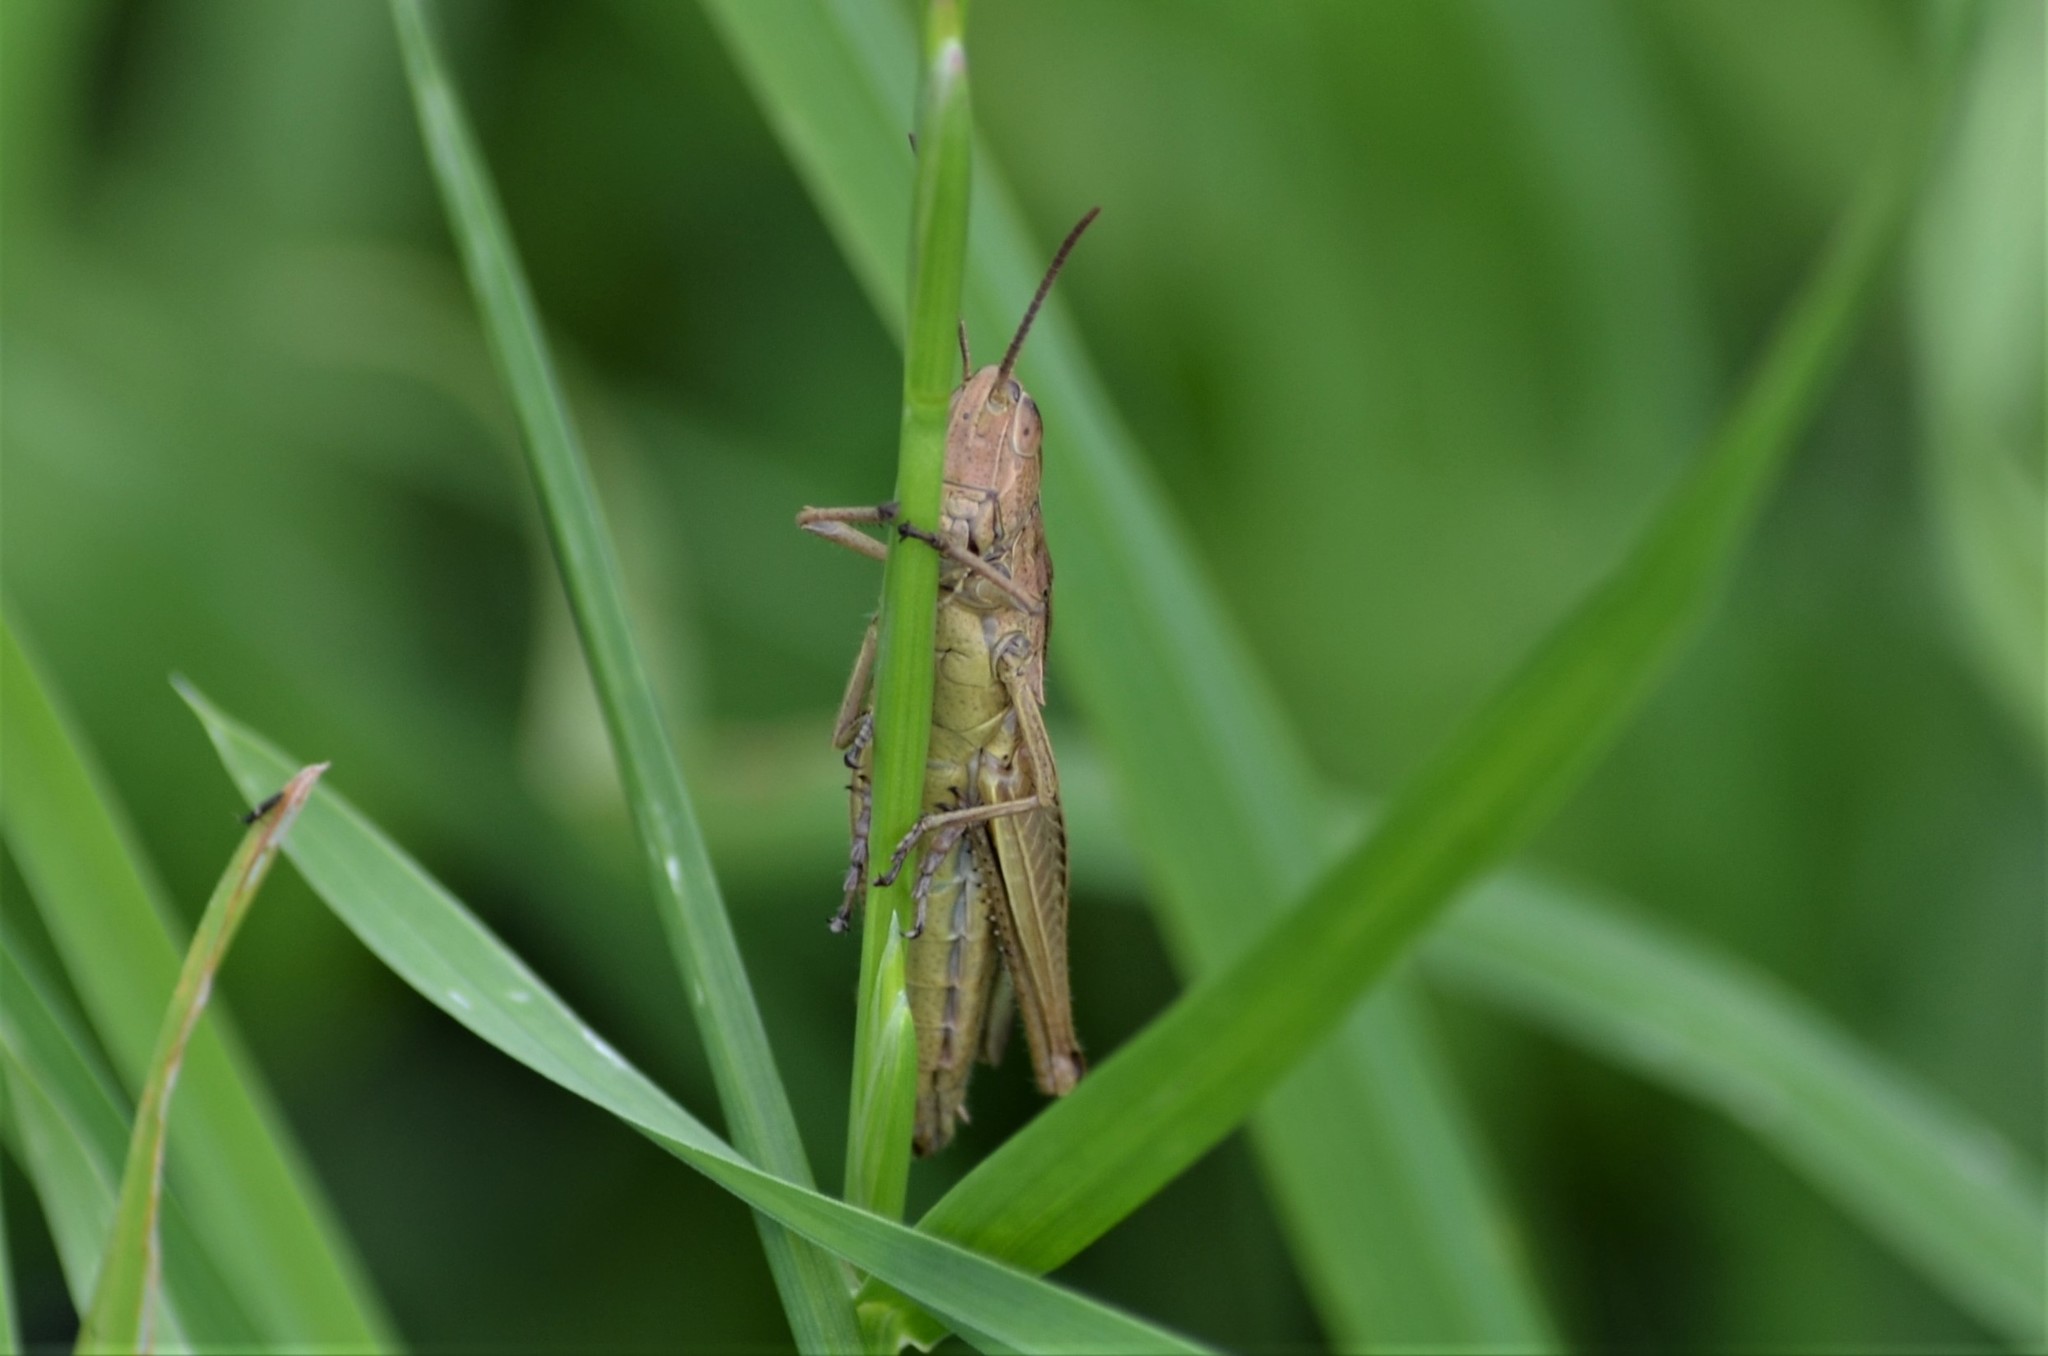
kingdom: Animalia
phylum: Arthropoda
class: Insecta
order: Orthoptera
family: Acrididae
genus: Chorthippus
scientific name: Chorthippus albomarginatus
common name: Lesser marsh grasshopper
